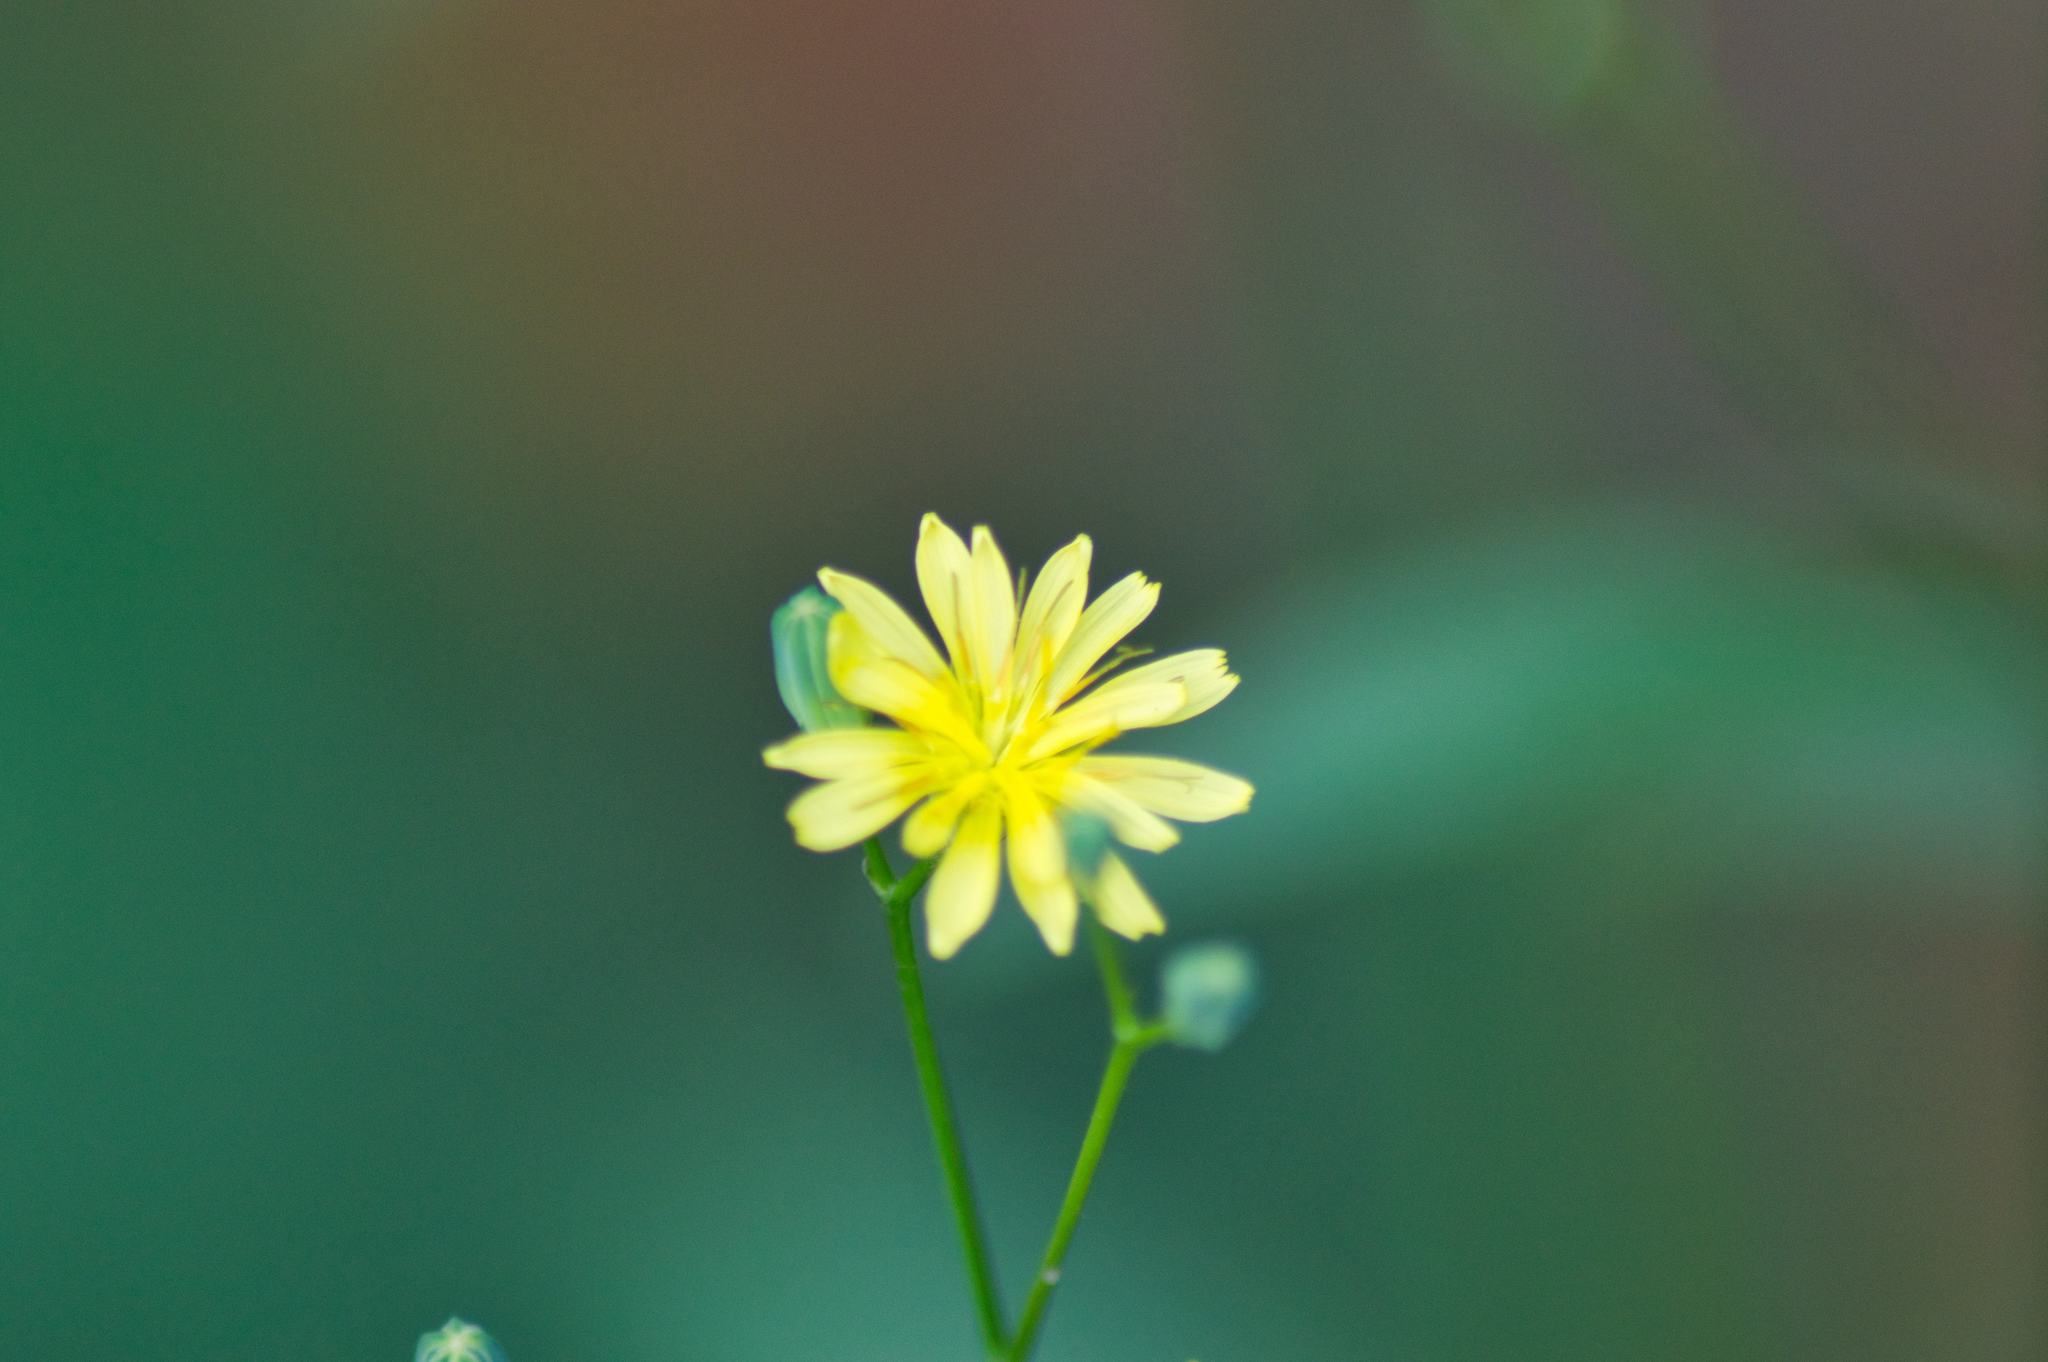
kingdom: Plantae
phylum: Tracheophyta
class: Magnoliopsida
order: Asterales
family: Asteraceae
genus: Lapsana
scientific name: Lapsana communis
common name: Nipplewort
